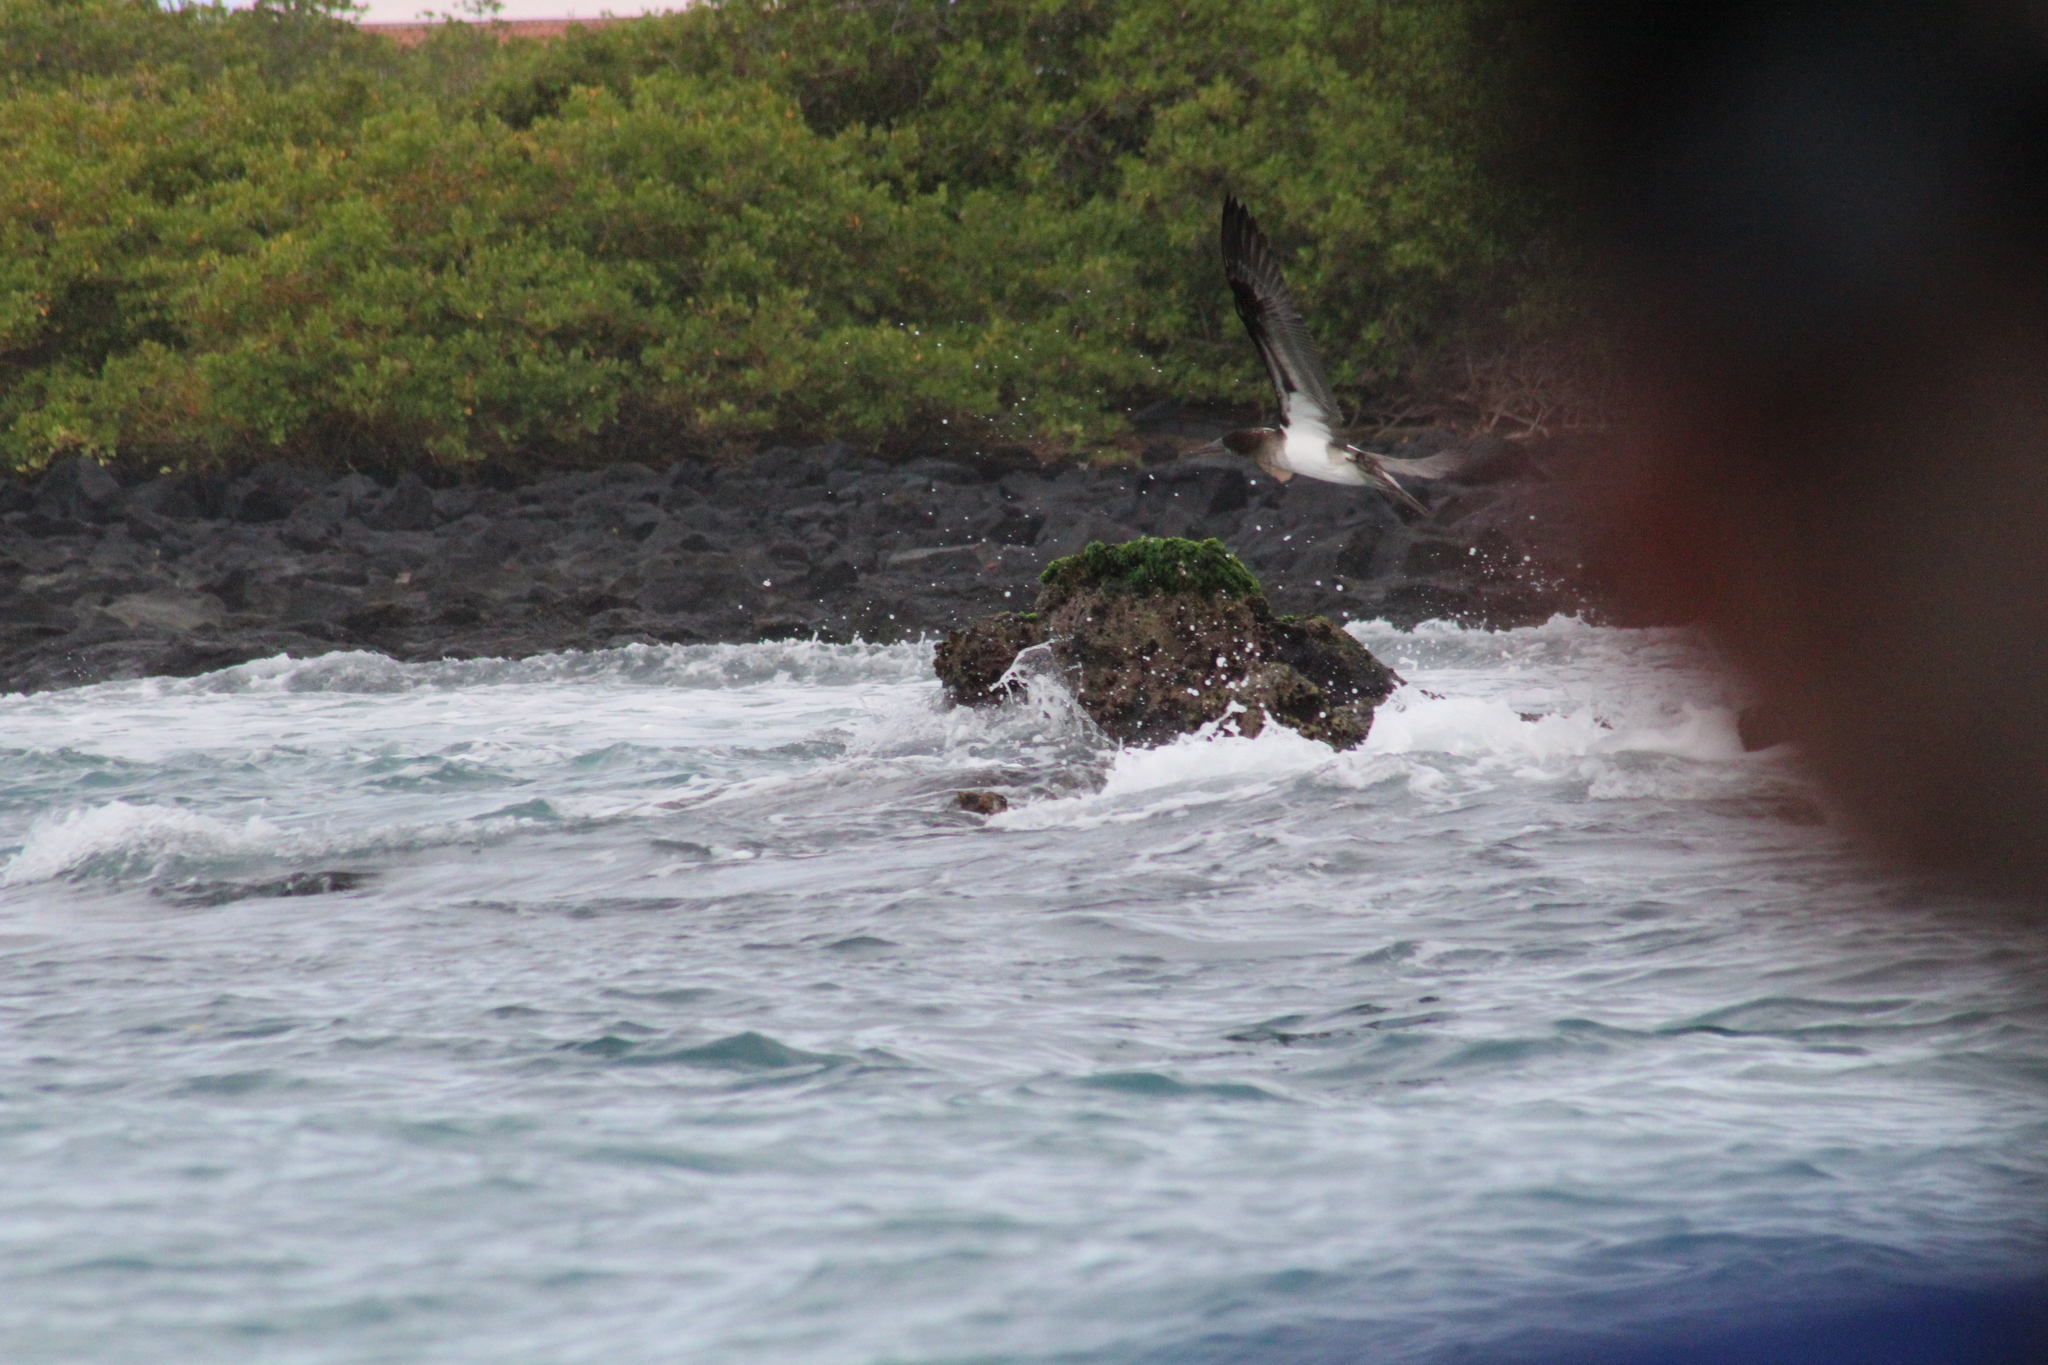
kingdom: Animalia
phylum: Chordata
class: Aves
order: Suliformes
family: Sulidae
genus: Sula
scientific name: Sula nebouxii
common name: Blue-footed booby
